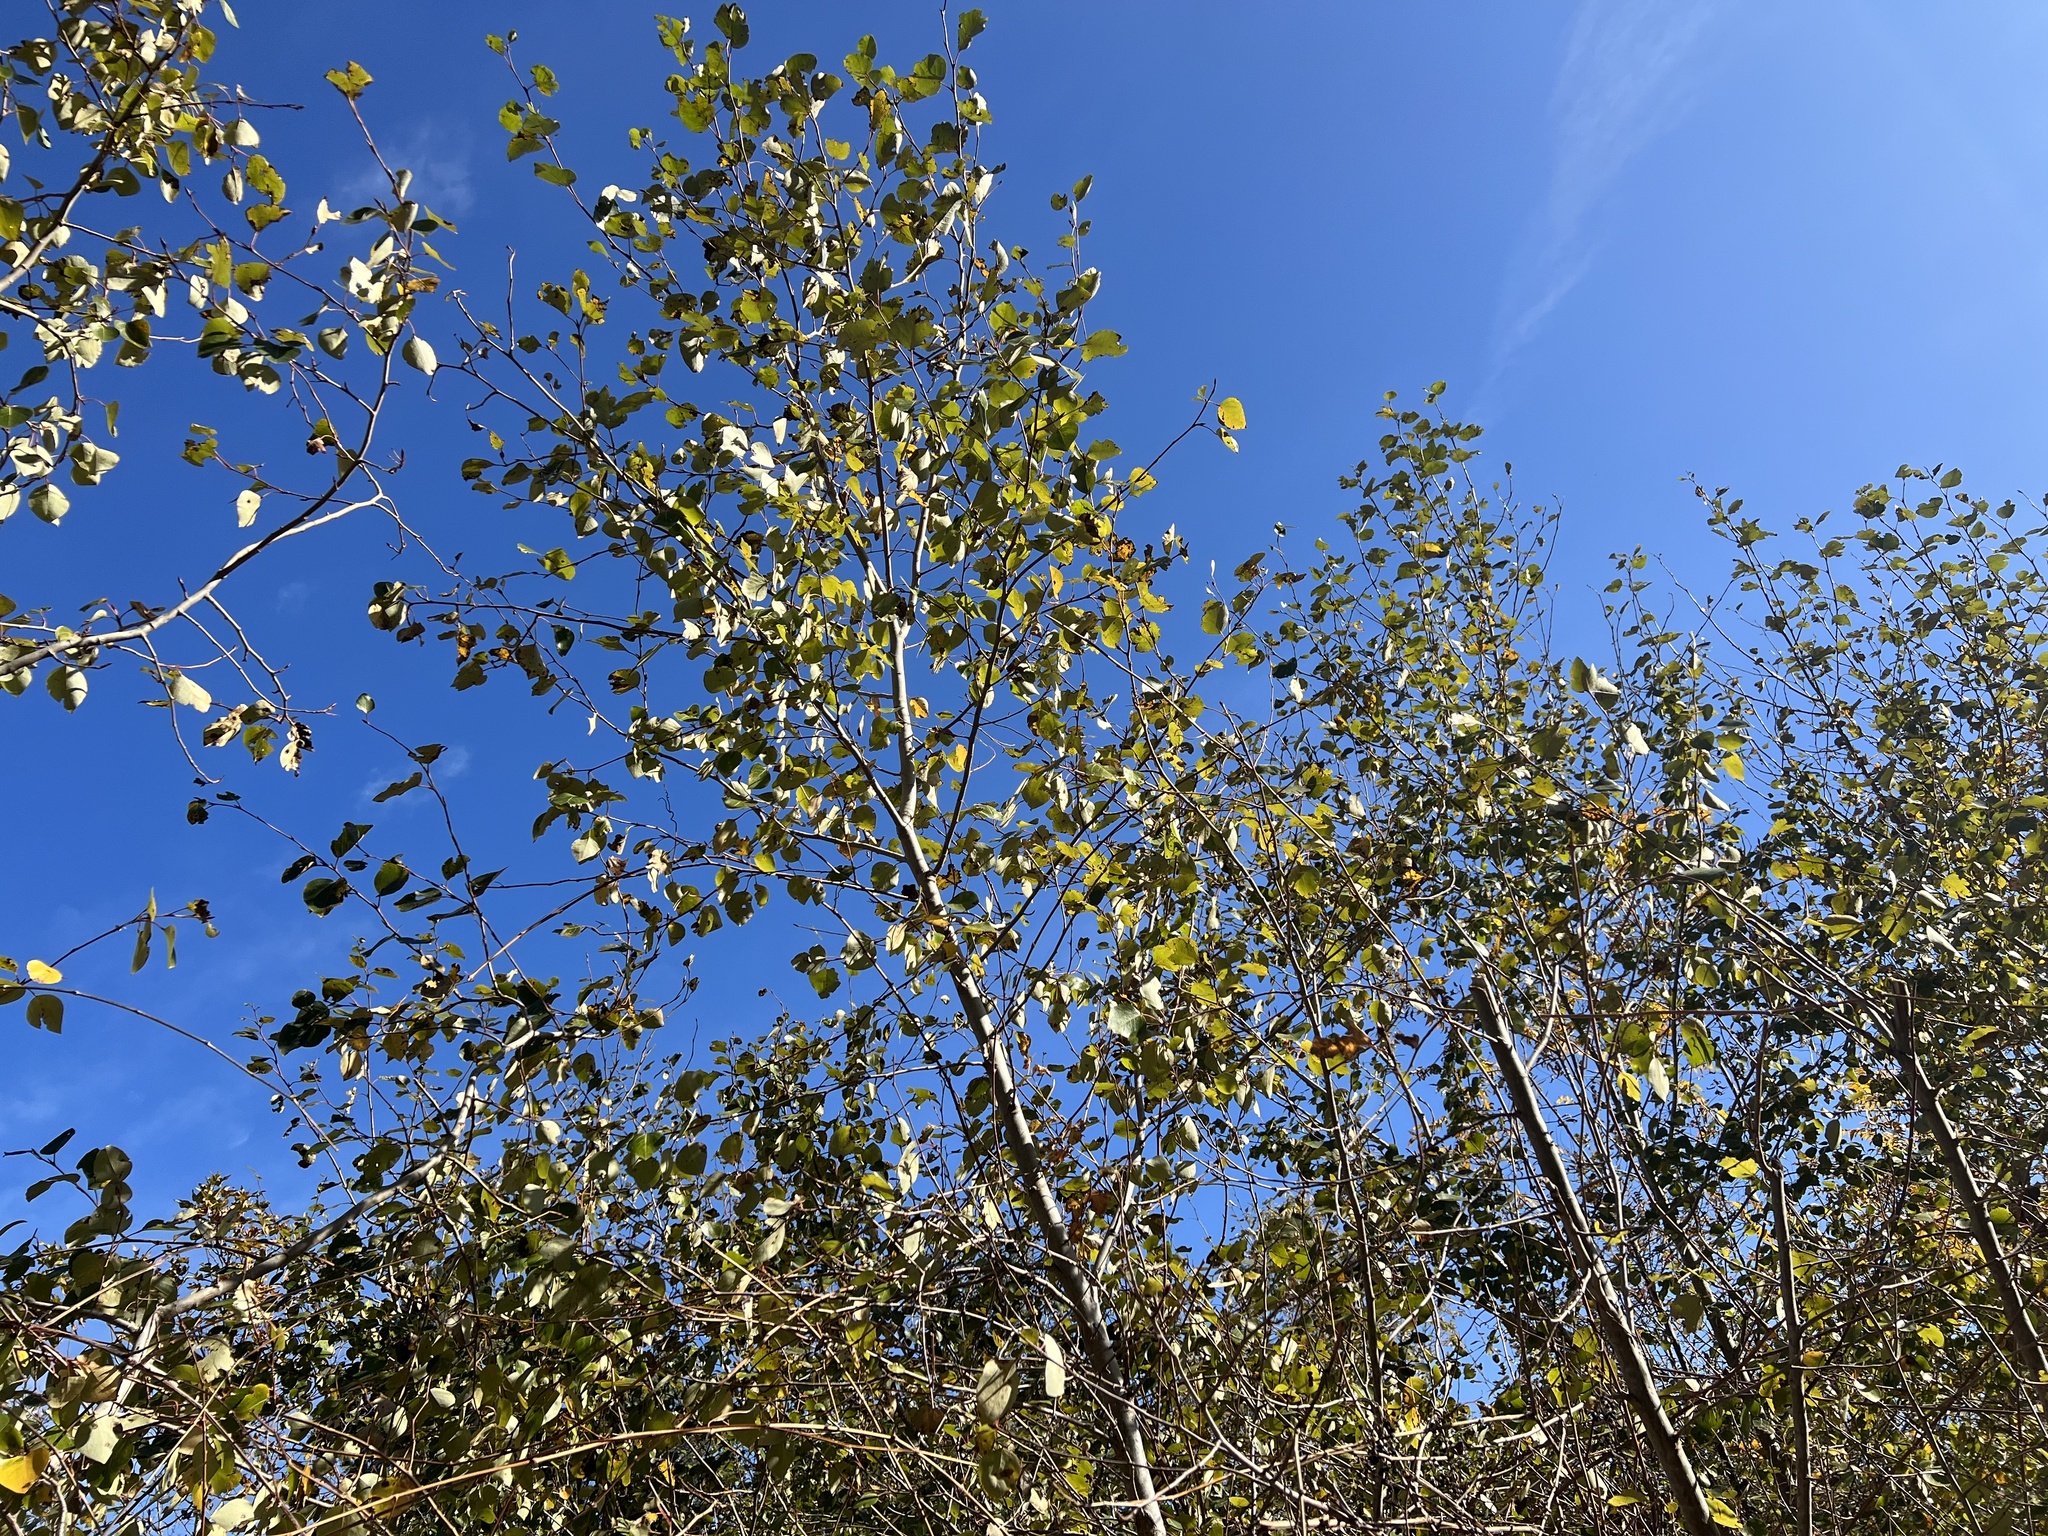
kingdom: Plantae
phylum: Tracheophyta
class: Magnoliopsida
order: Malpighiales
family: Salicaceae
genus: Populus
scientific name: Populus trichocarpa
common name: Black cottonwood
